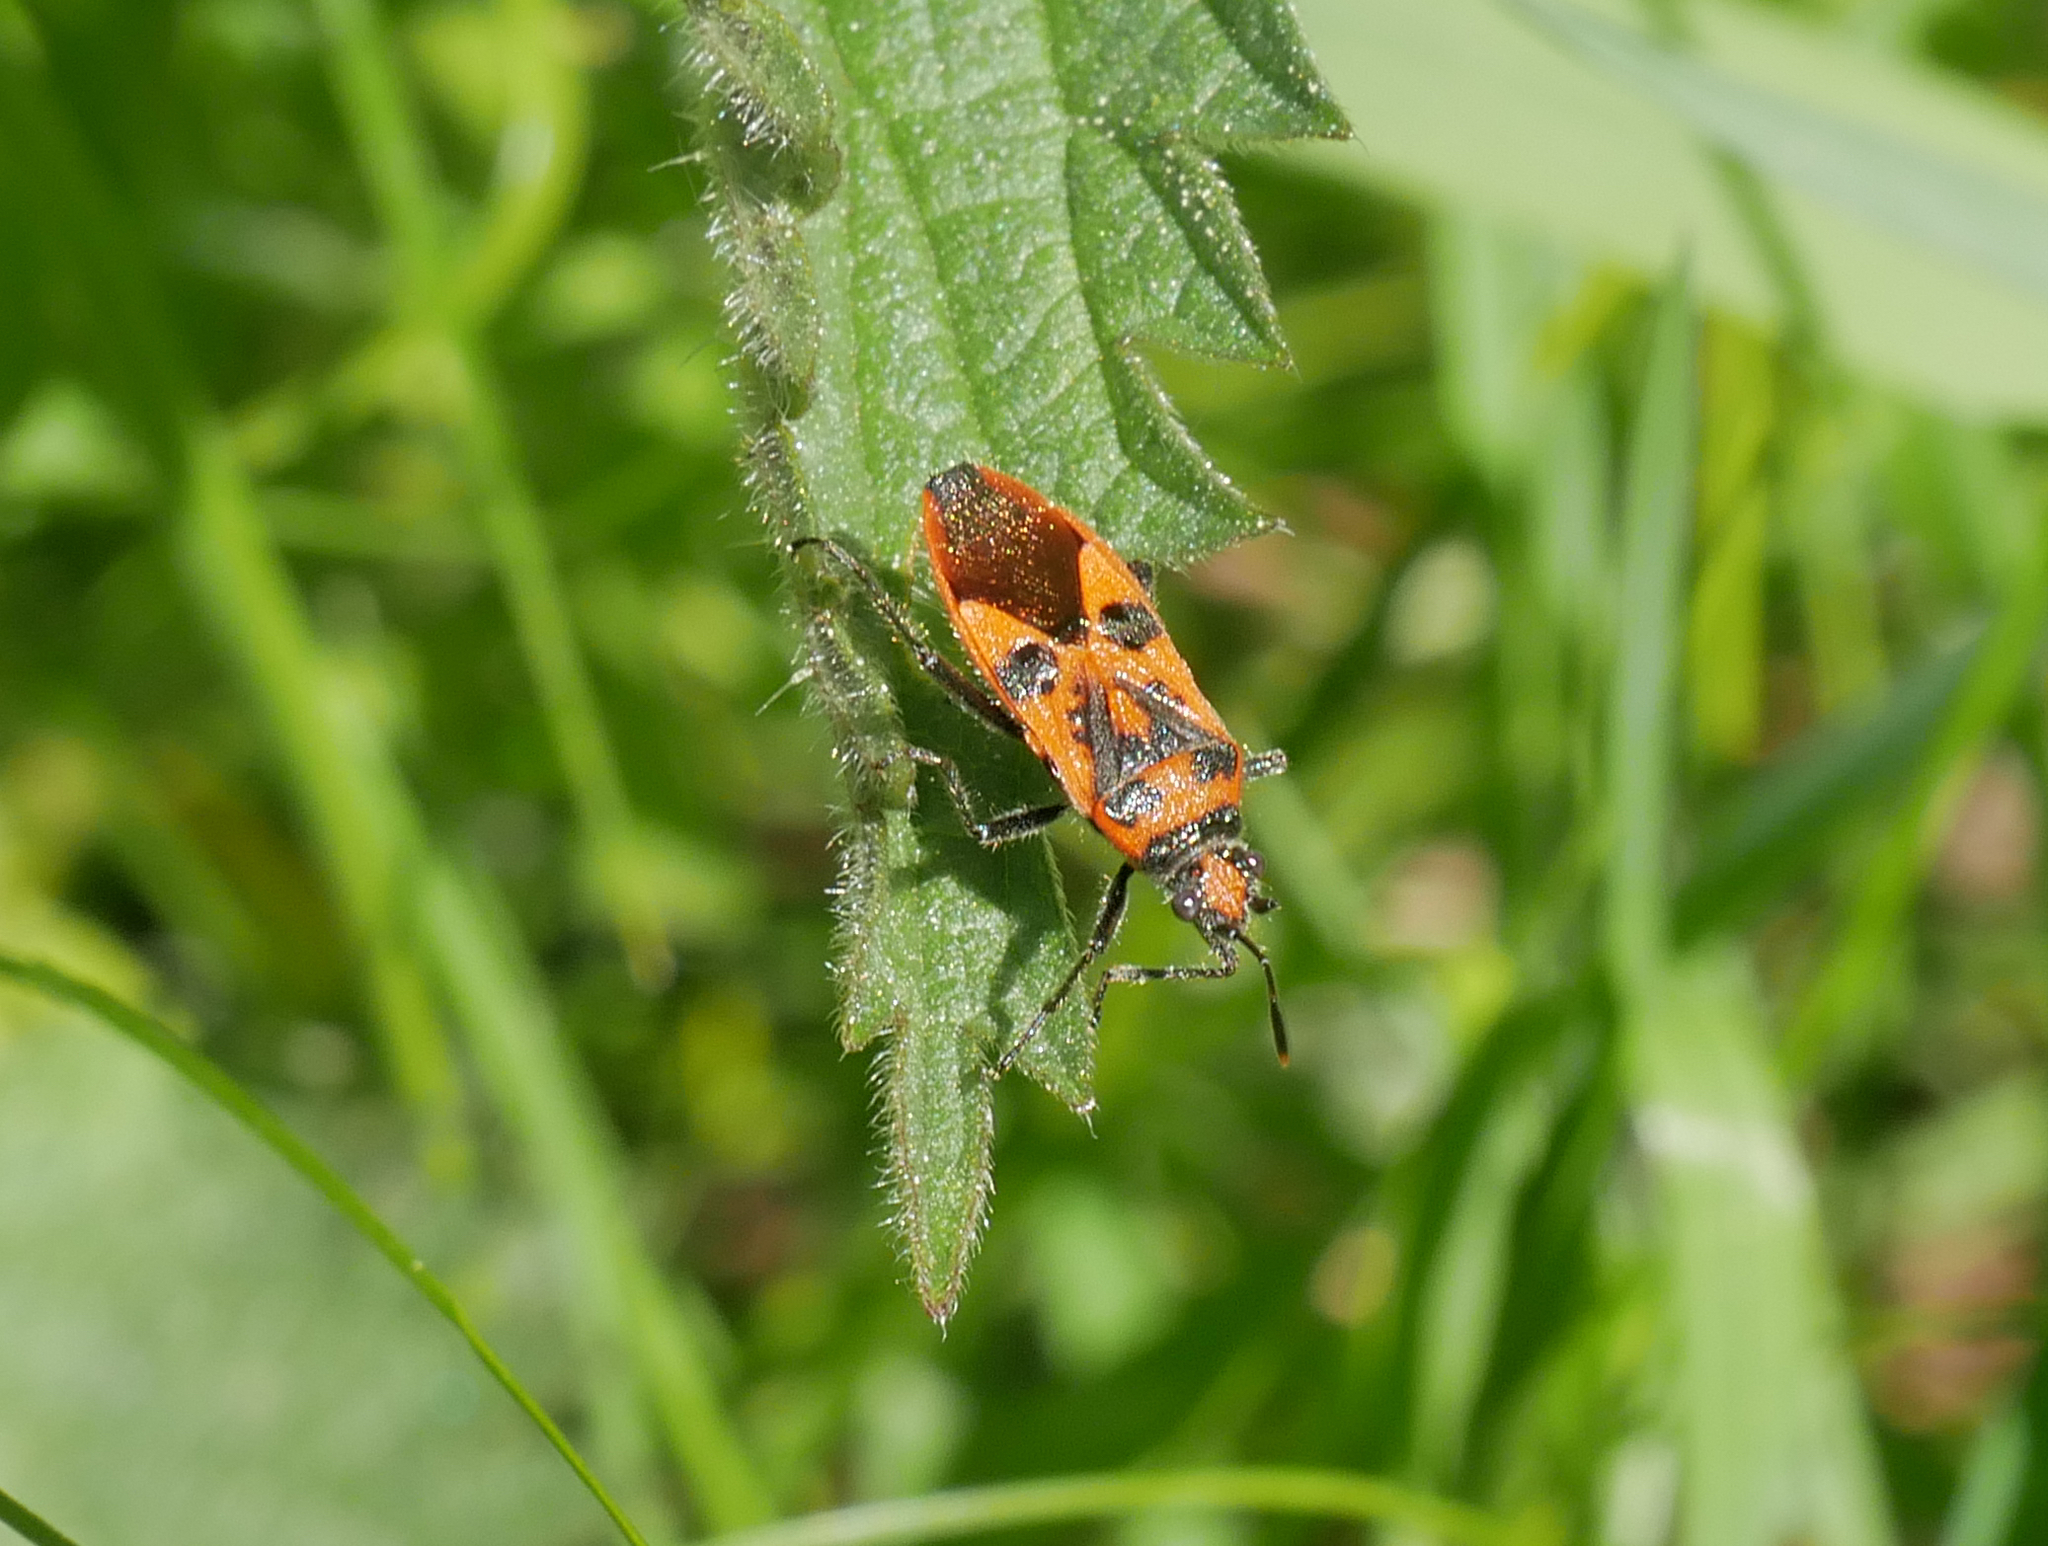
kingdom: Animalia
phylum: Arthropoda
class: Insecta
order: Hemiptera
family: Rhopalidae
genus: Corizus
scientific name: Corizus hyoscyami
